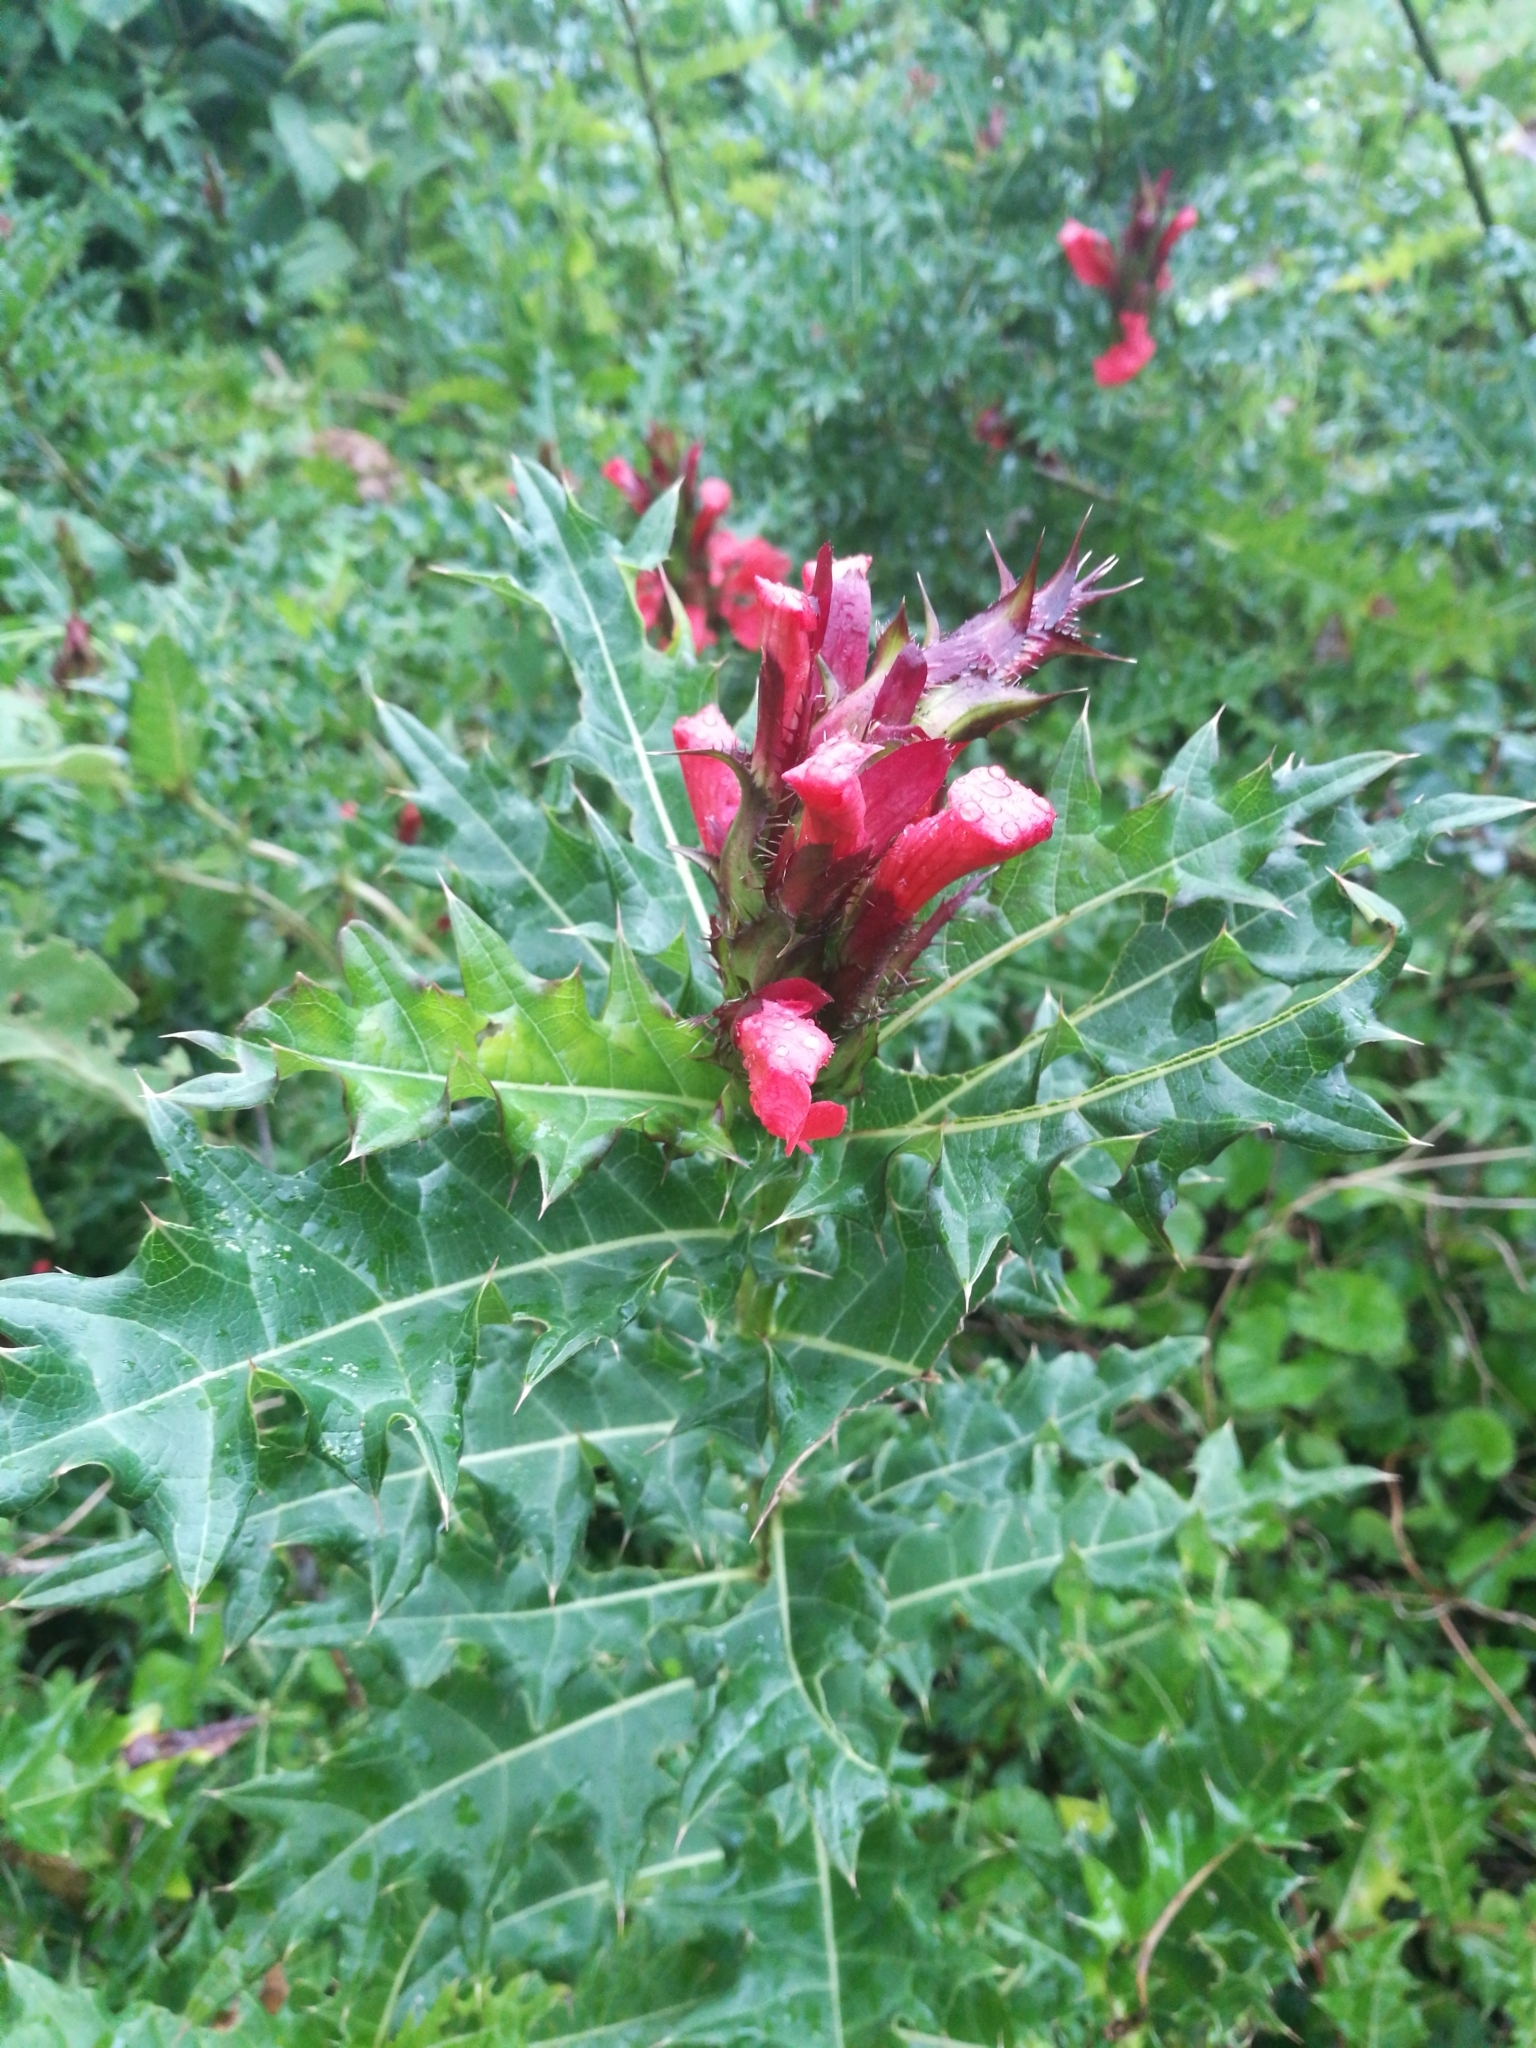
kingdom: Plantae
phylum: Tracheophyta
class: Magnoliopsida
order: Lamiales
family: Acanthaceae
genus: Acanthus
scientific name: Acanthus sennii
